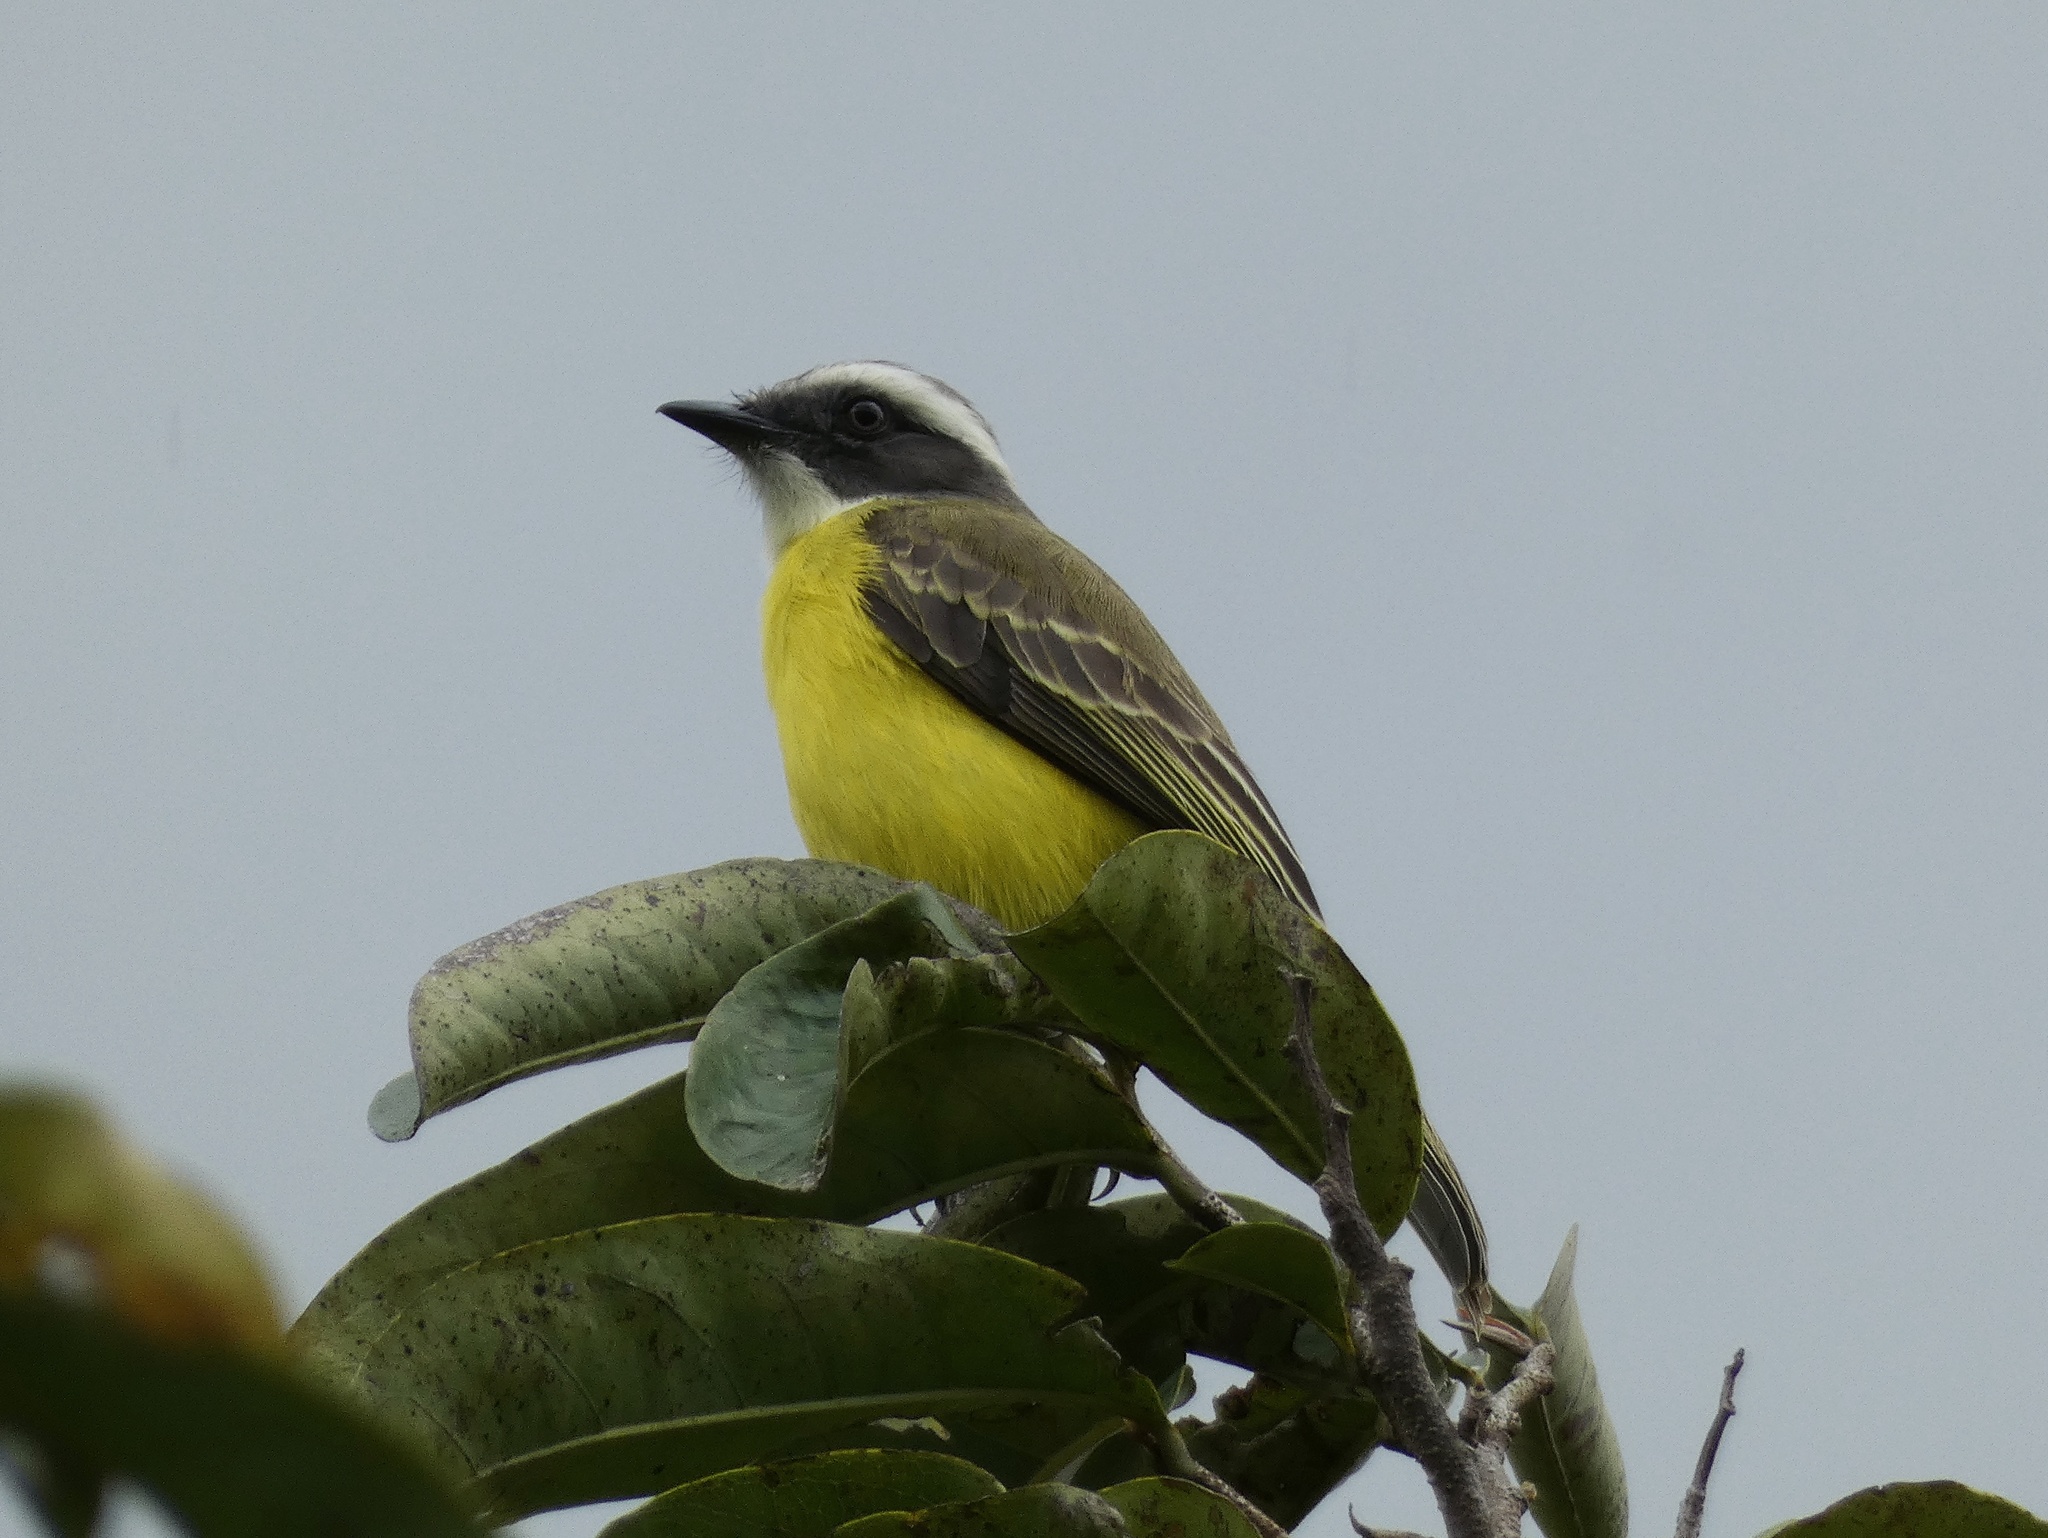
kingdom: Animalia
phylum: Chordata
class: Aves
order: Passeriformes
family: Tyrannidae
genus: Myiozetetes
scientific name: Myiozetetes similis
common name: Social flycatcher
